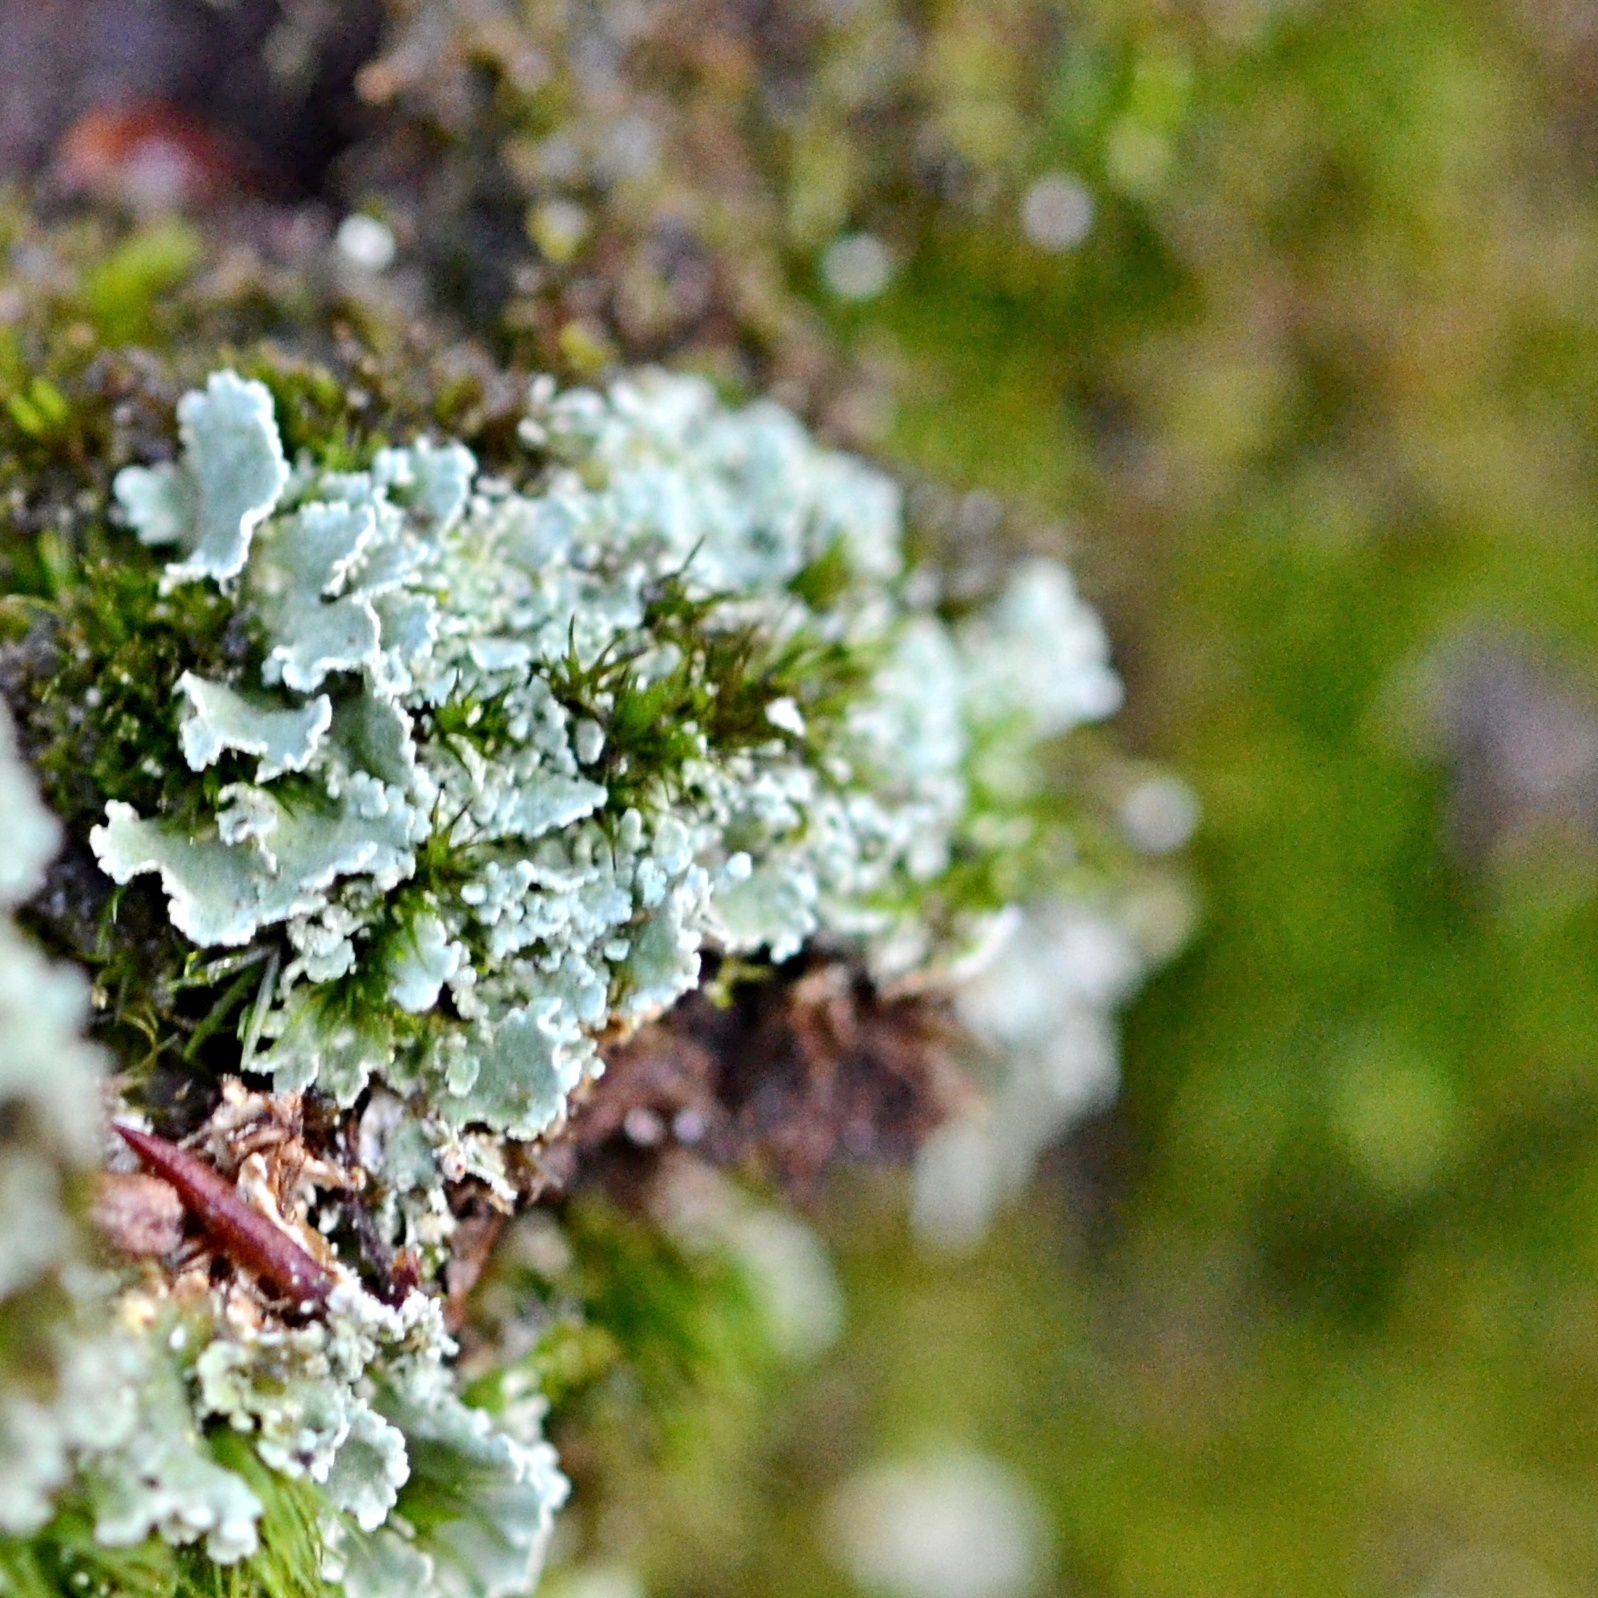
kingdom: Fungi
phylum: Ascomycota
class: Lecanoromycetes
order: Lecanorales
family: Cladoniaceae
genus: Cladonia
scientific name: Cladonia digitata
